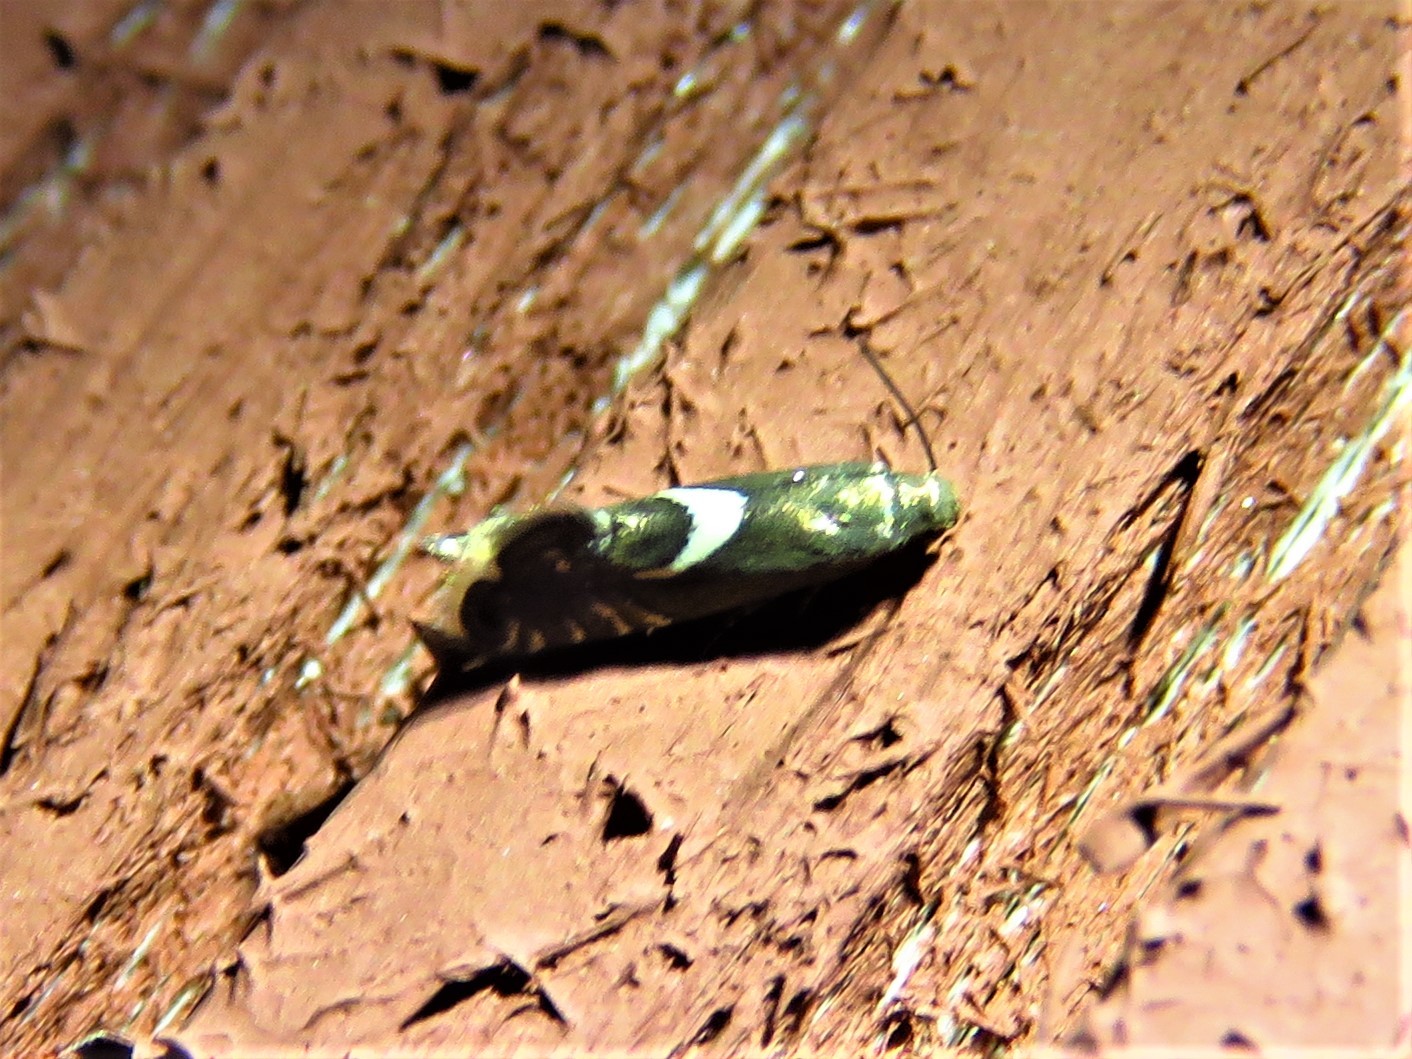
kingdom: Animalia
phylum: Arthropoda
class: Insecta
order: Lepidoptera
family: Glyphipterigidae
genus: Glyphipterix
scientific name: Glyphipterix Diploschizia impigritella
